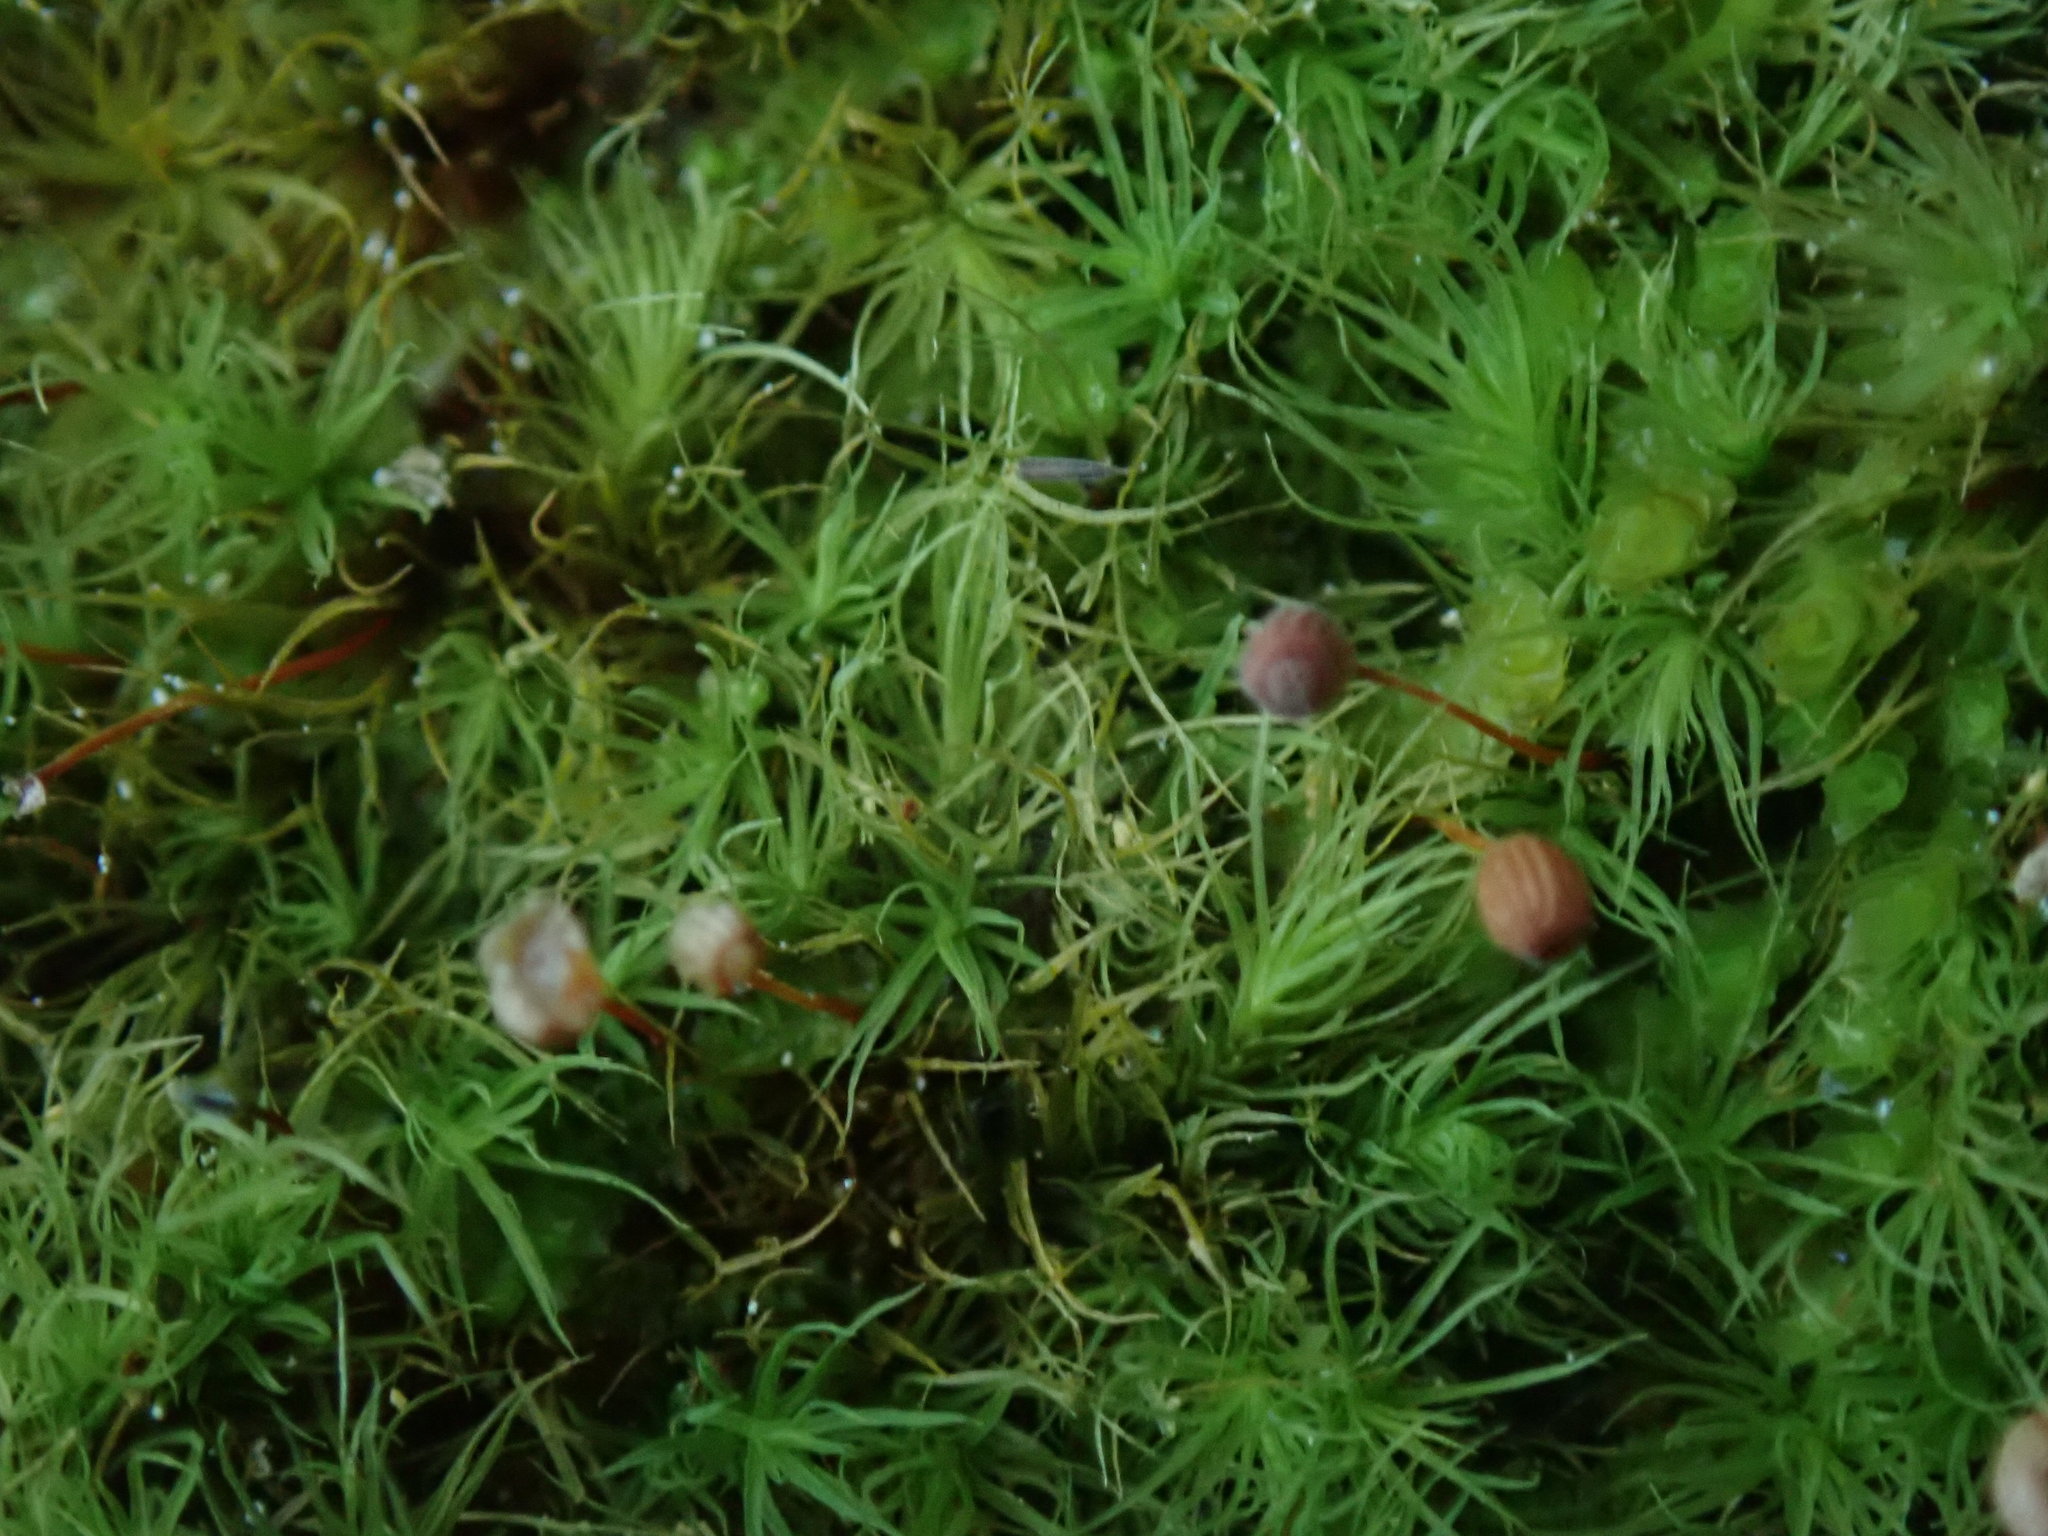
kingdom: Plantae
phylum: Bryophyta
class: Bryopsida
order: Bartramiales
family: Bartramiaceae
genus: Bartramia
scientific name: Bartramia ithyphylla
